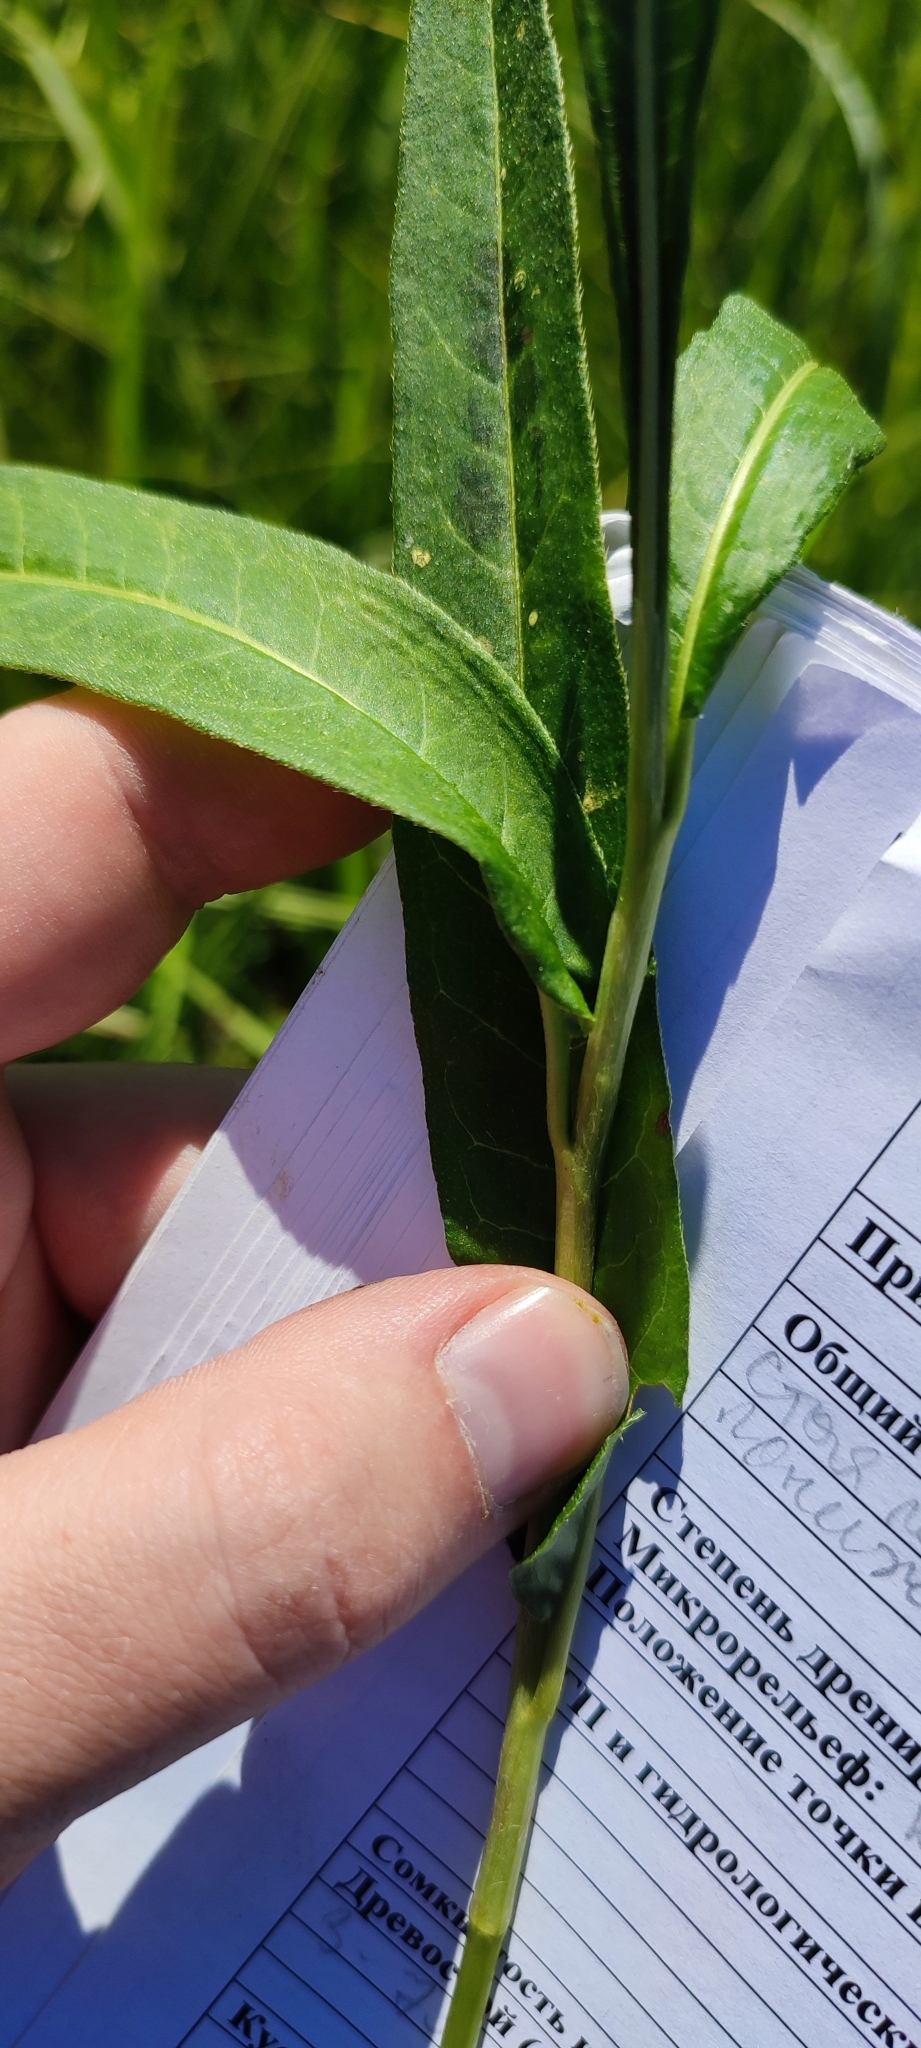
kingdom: Plantae
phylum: Tracheophyta
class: Magnoliopsida
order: Caryophyllales
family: Polygonaceae
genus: Persicaria
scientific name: Persicaria amphibia
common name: Amphibious bistort
